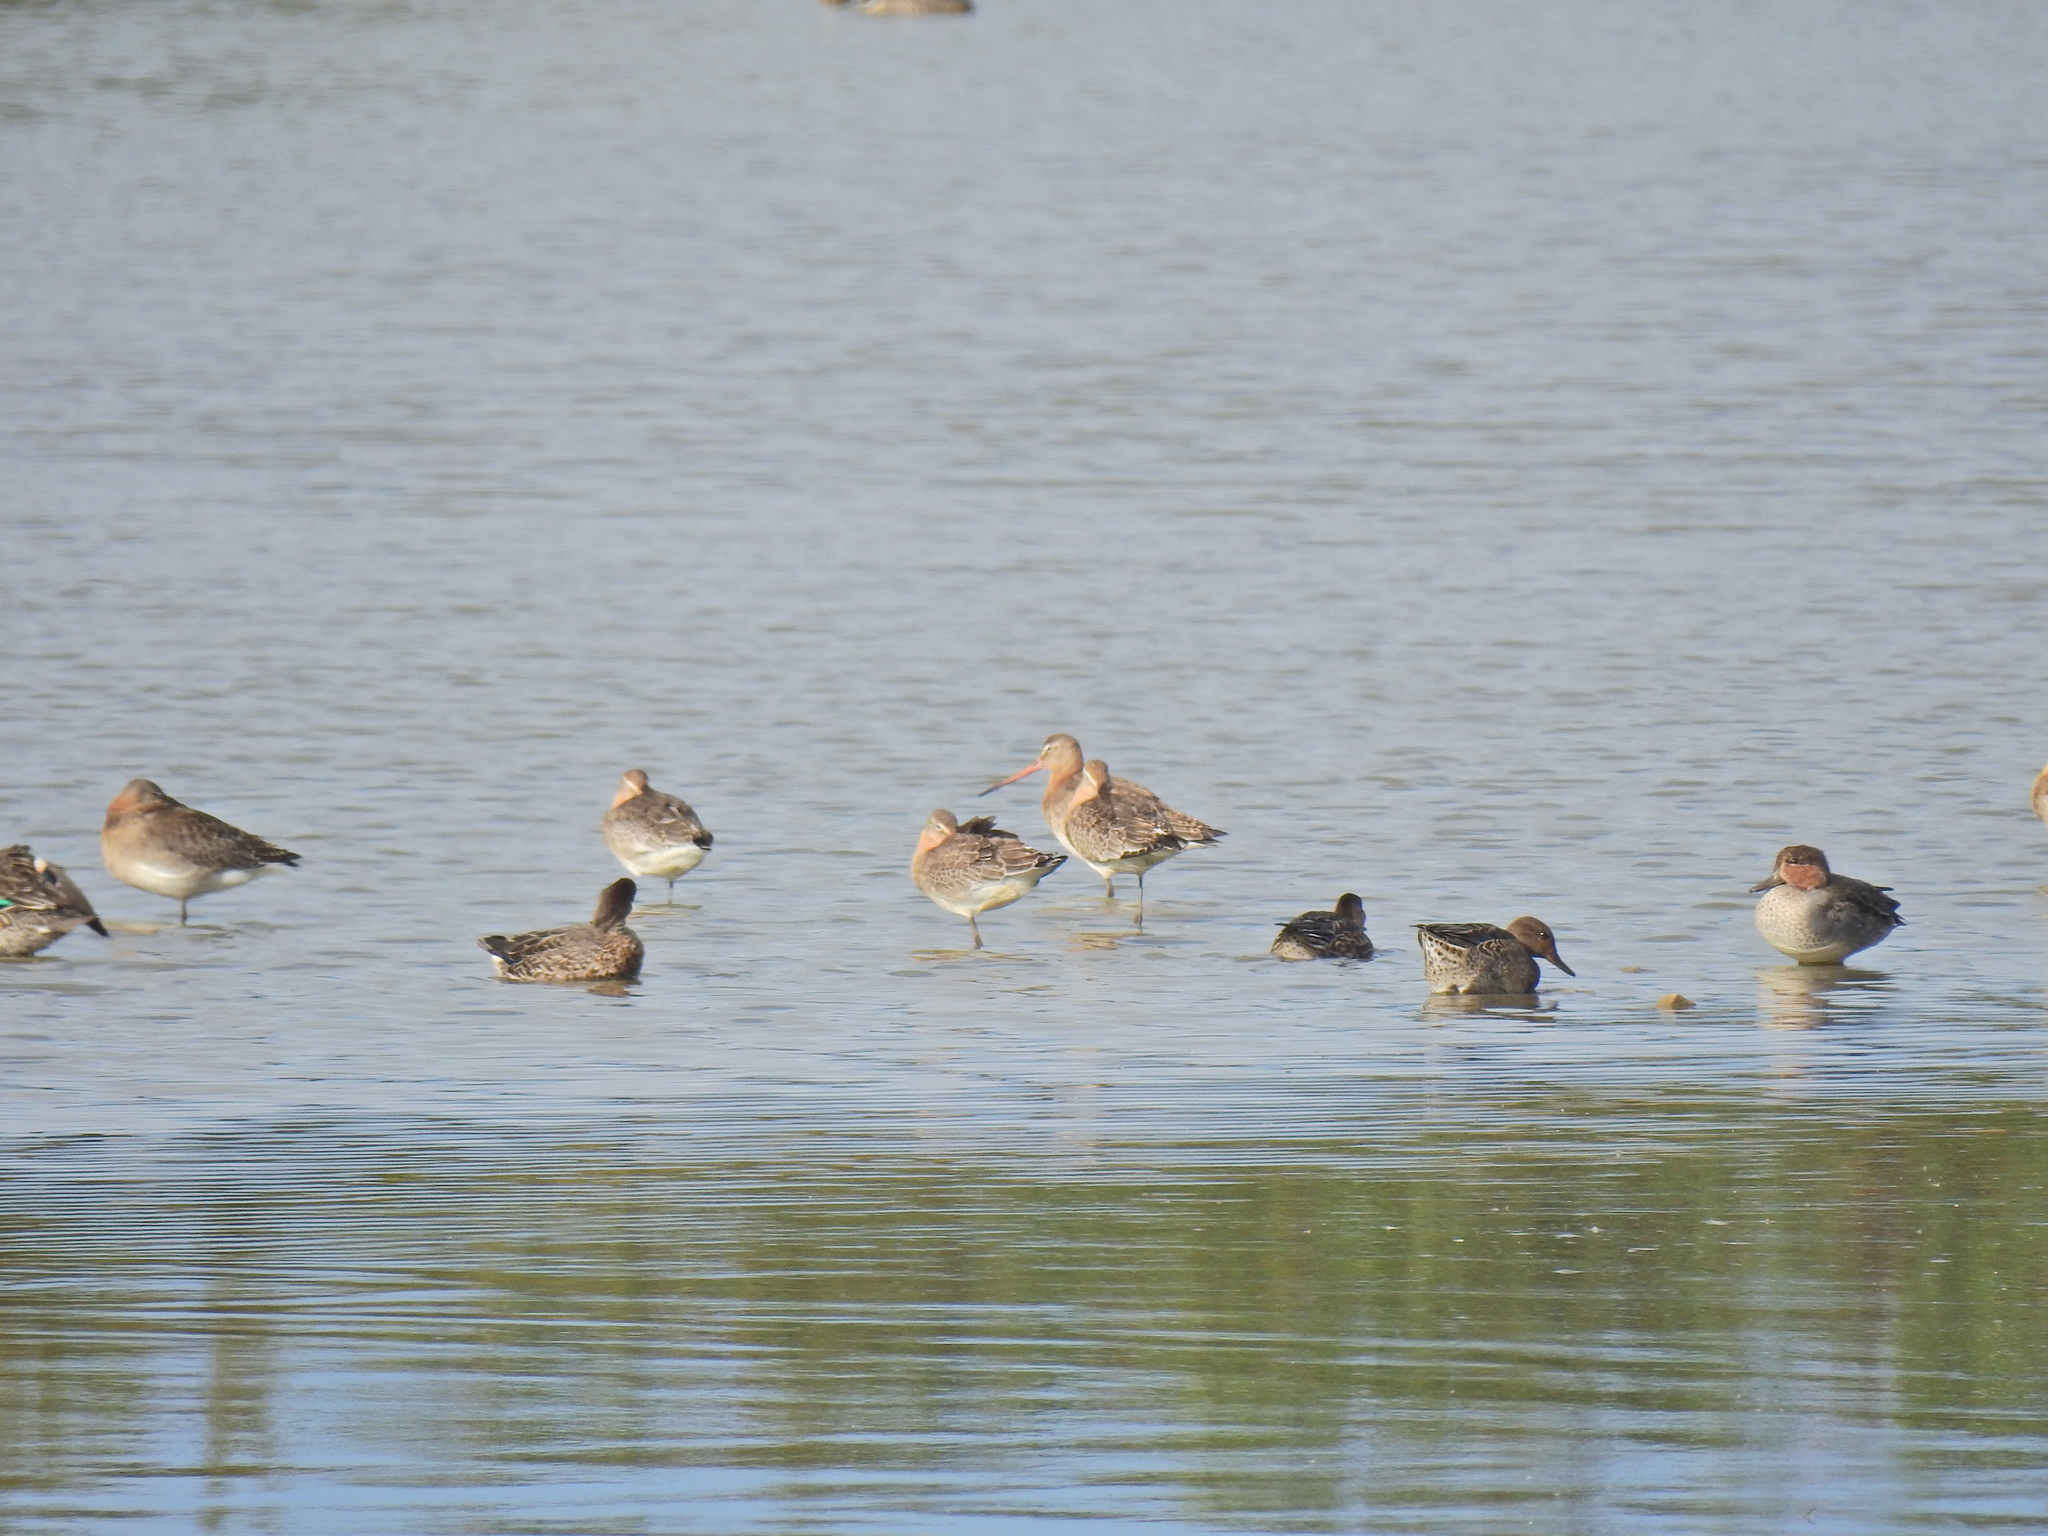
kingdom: Animalia
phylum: Chordata
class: Aves
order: Charadriiformes
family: Scolopacidae
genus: Limosa
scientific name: Limosa limosa
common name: Black-tailed godwit
